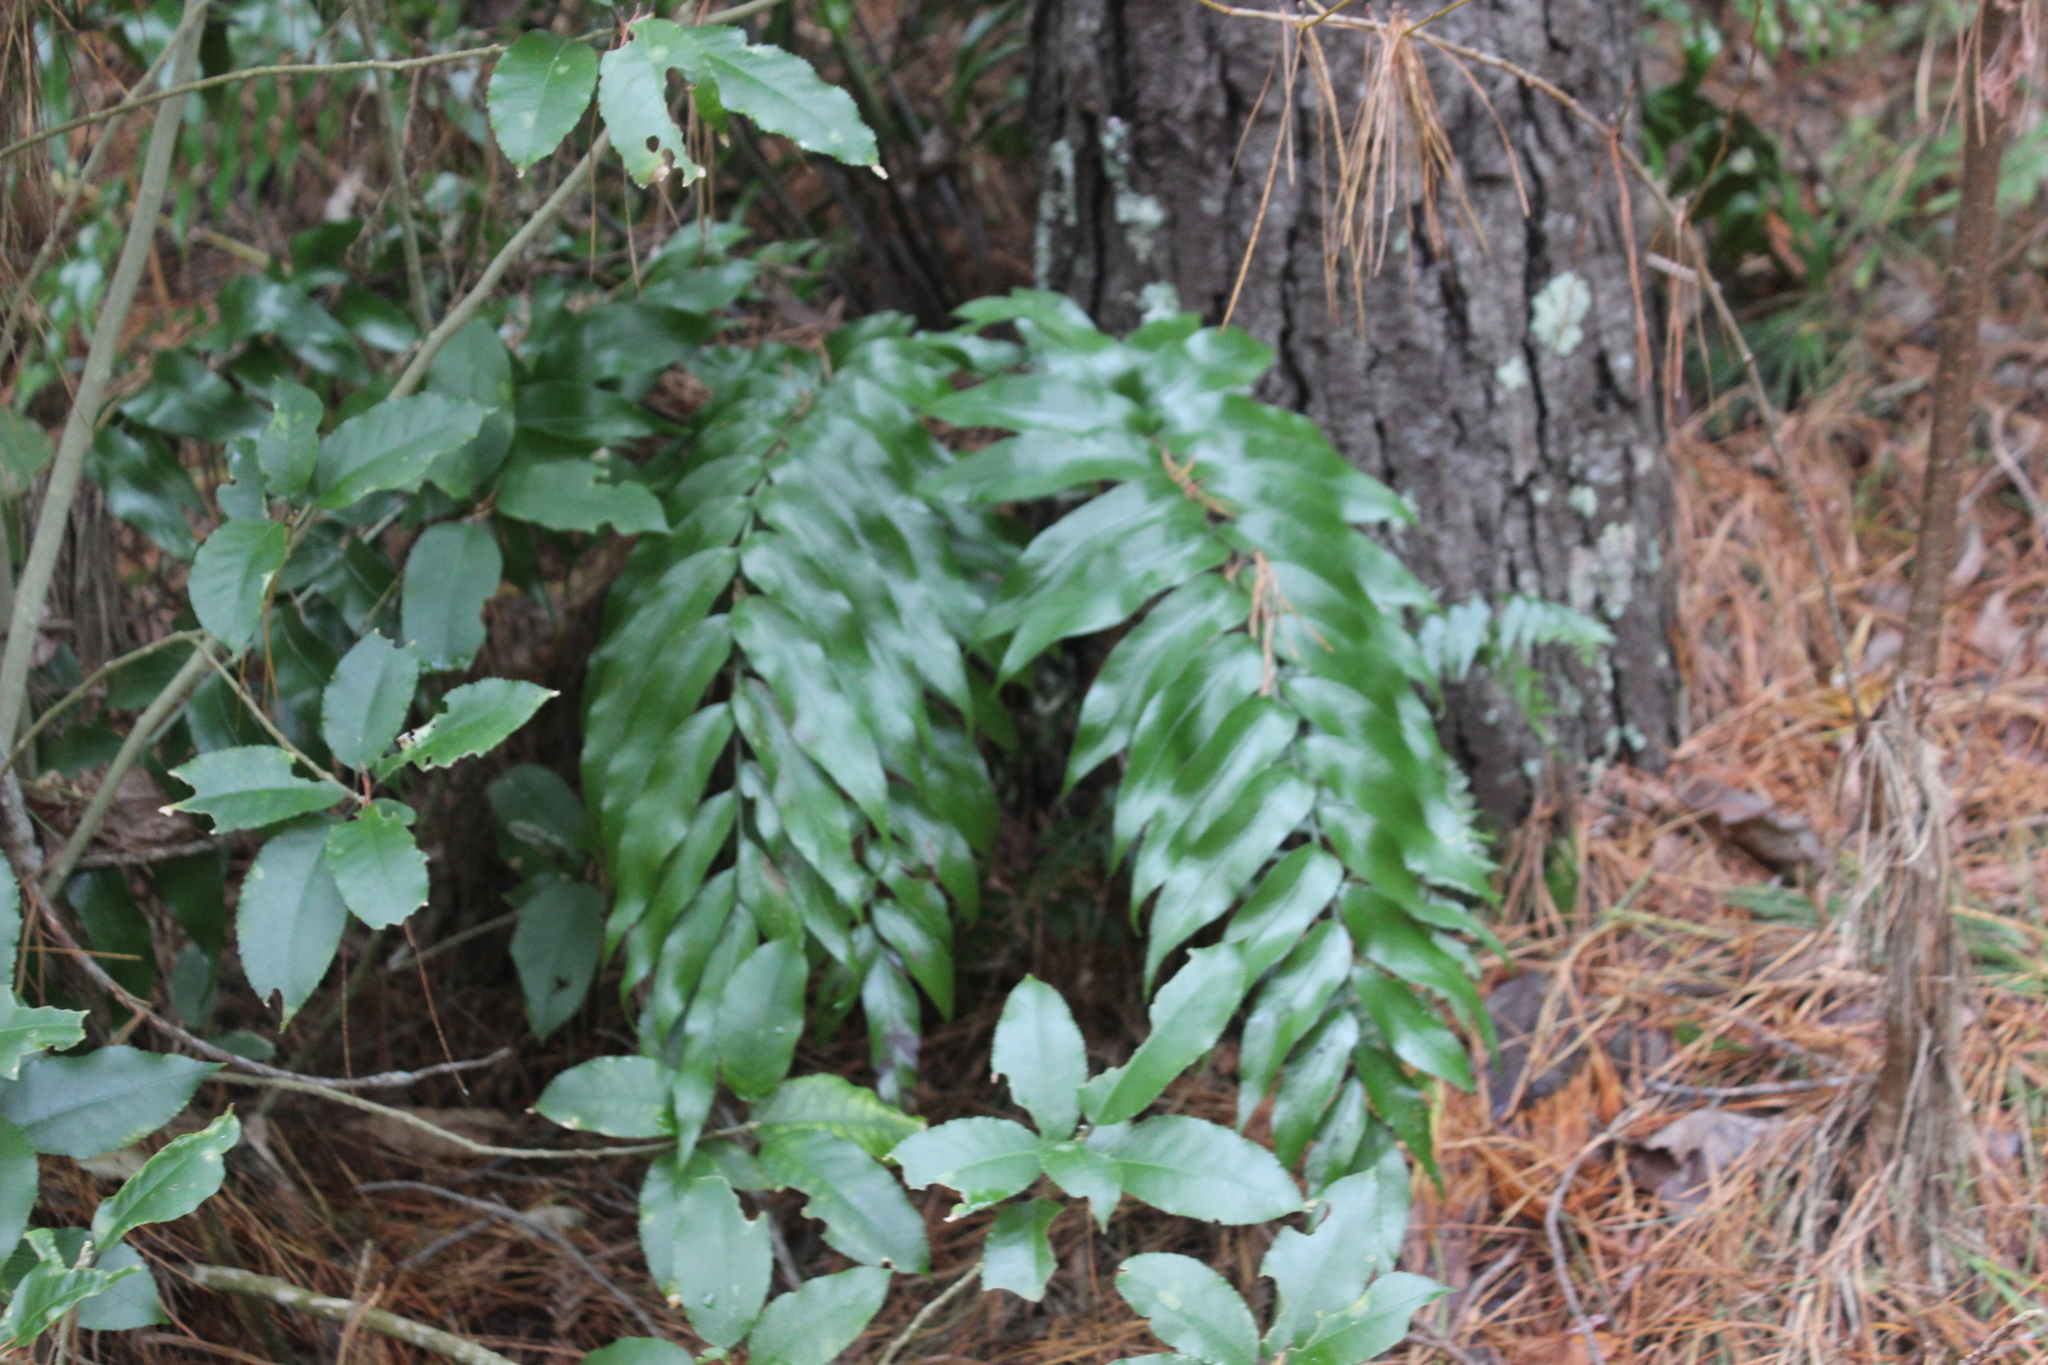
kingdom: Plantae
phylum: Tracheophyta
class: Polypodiopsida
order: Polypodiales
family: Aspleniaceae
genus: Asplenium
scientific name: Asplenium oblongifolium
